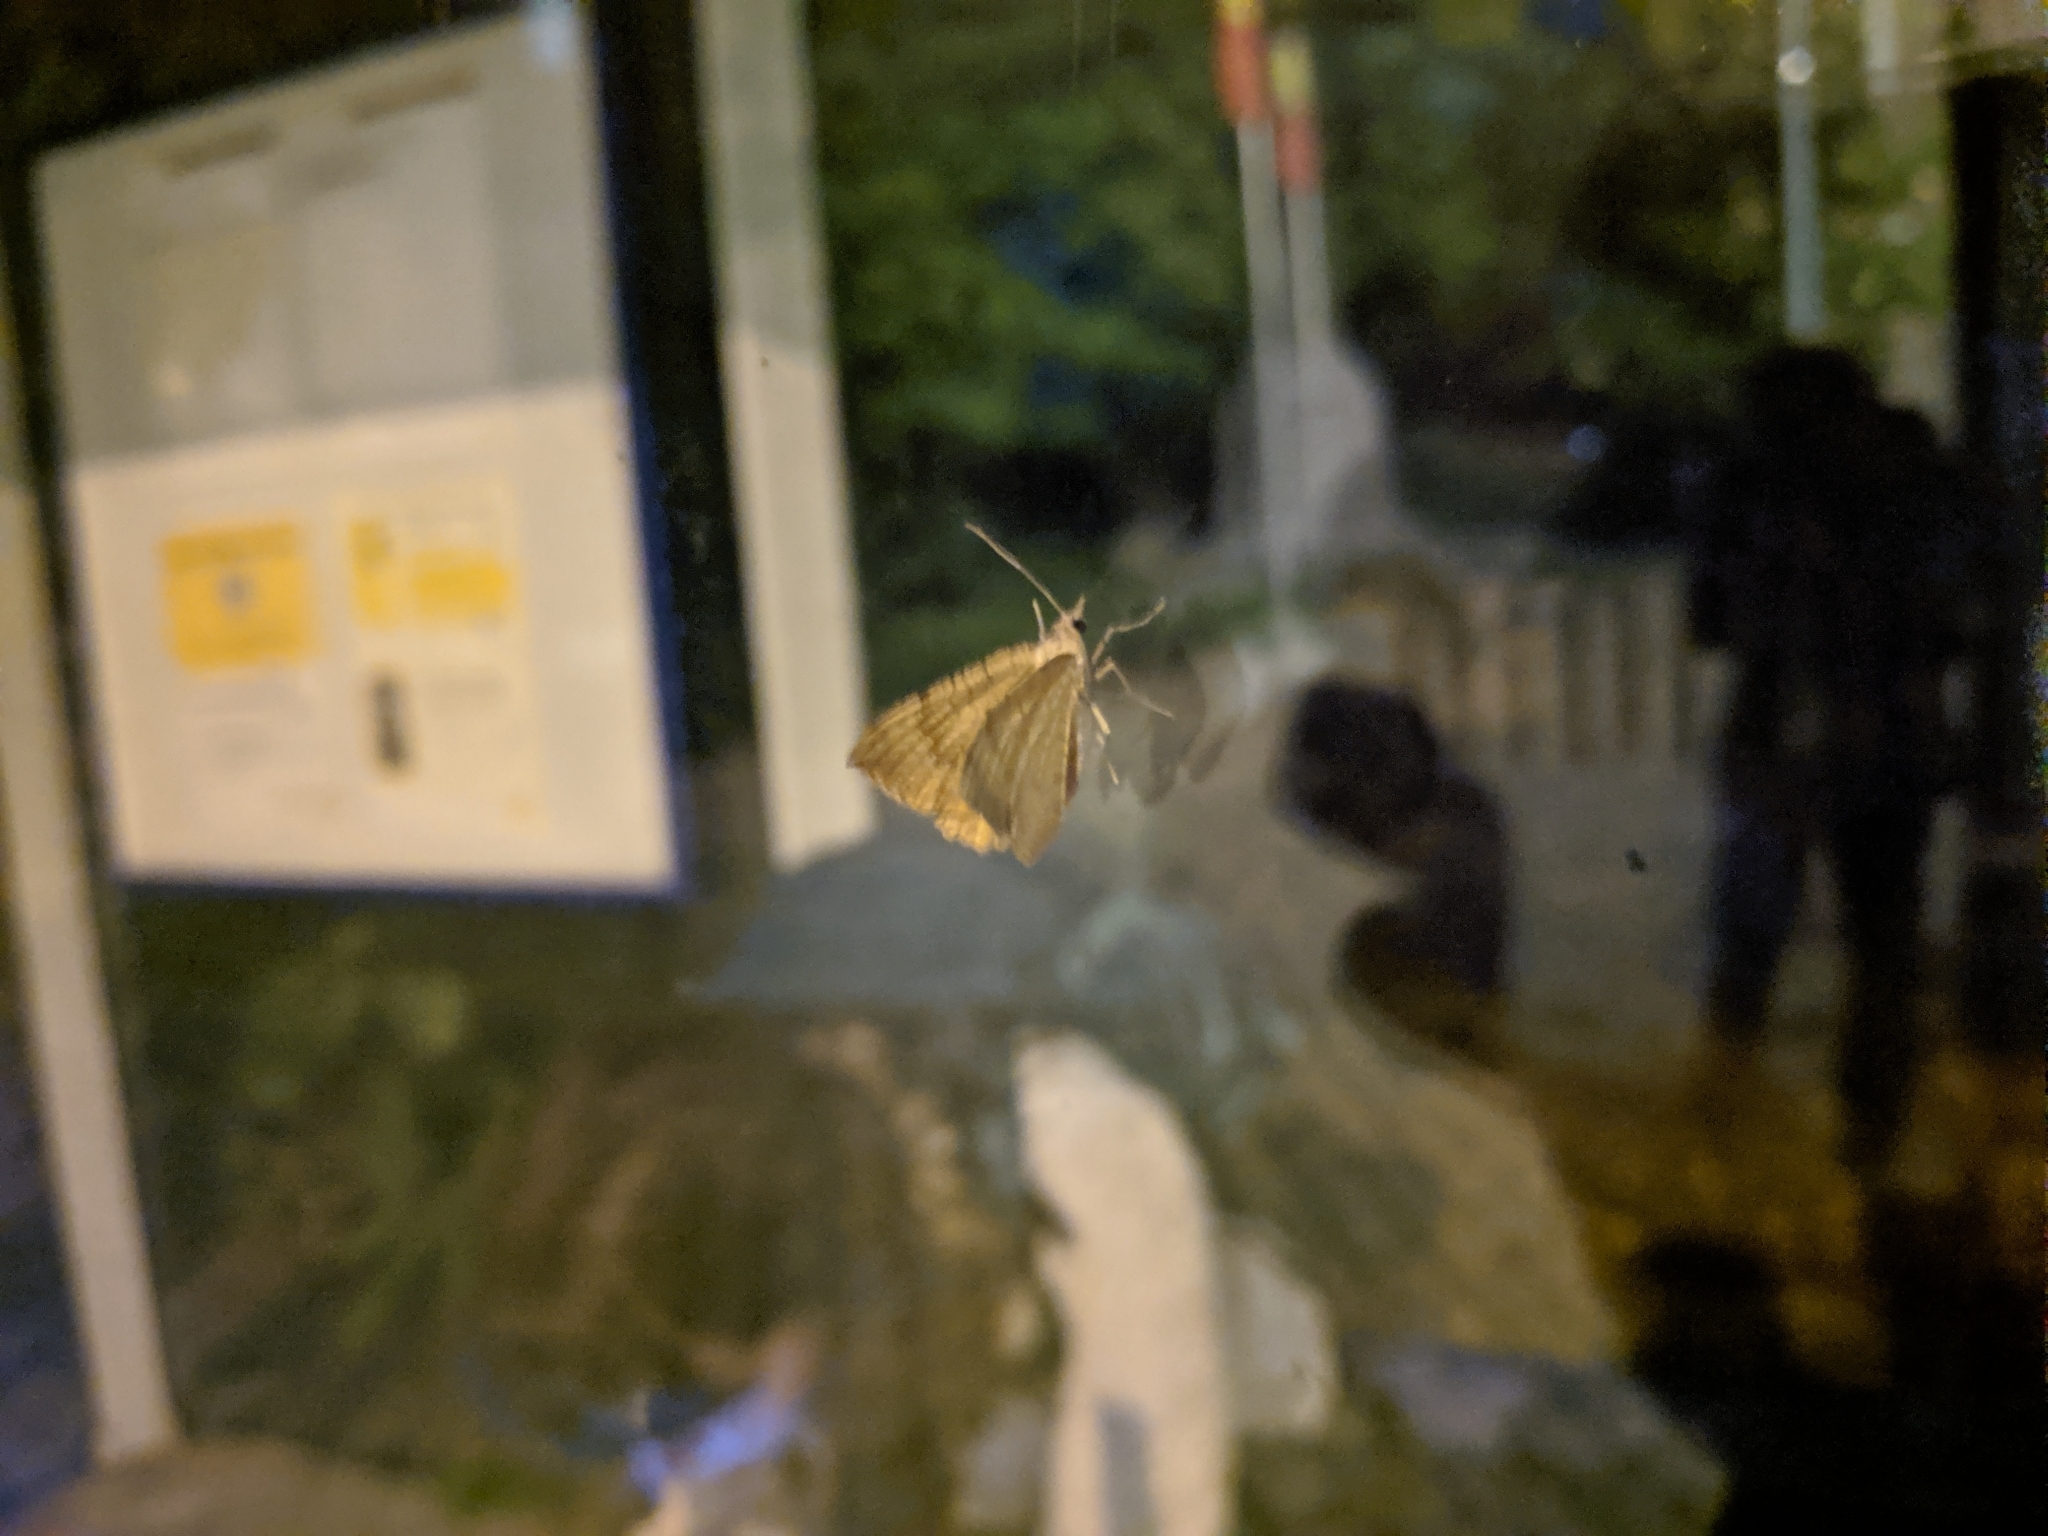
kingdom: Animalia
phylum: Arthropoda
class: Insecta
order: Lepidoptera
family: Geometridae
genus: Camptogramma
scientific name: Camptogramma bilineata
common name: Yellow shell
